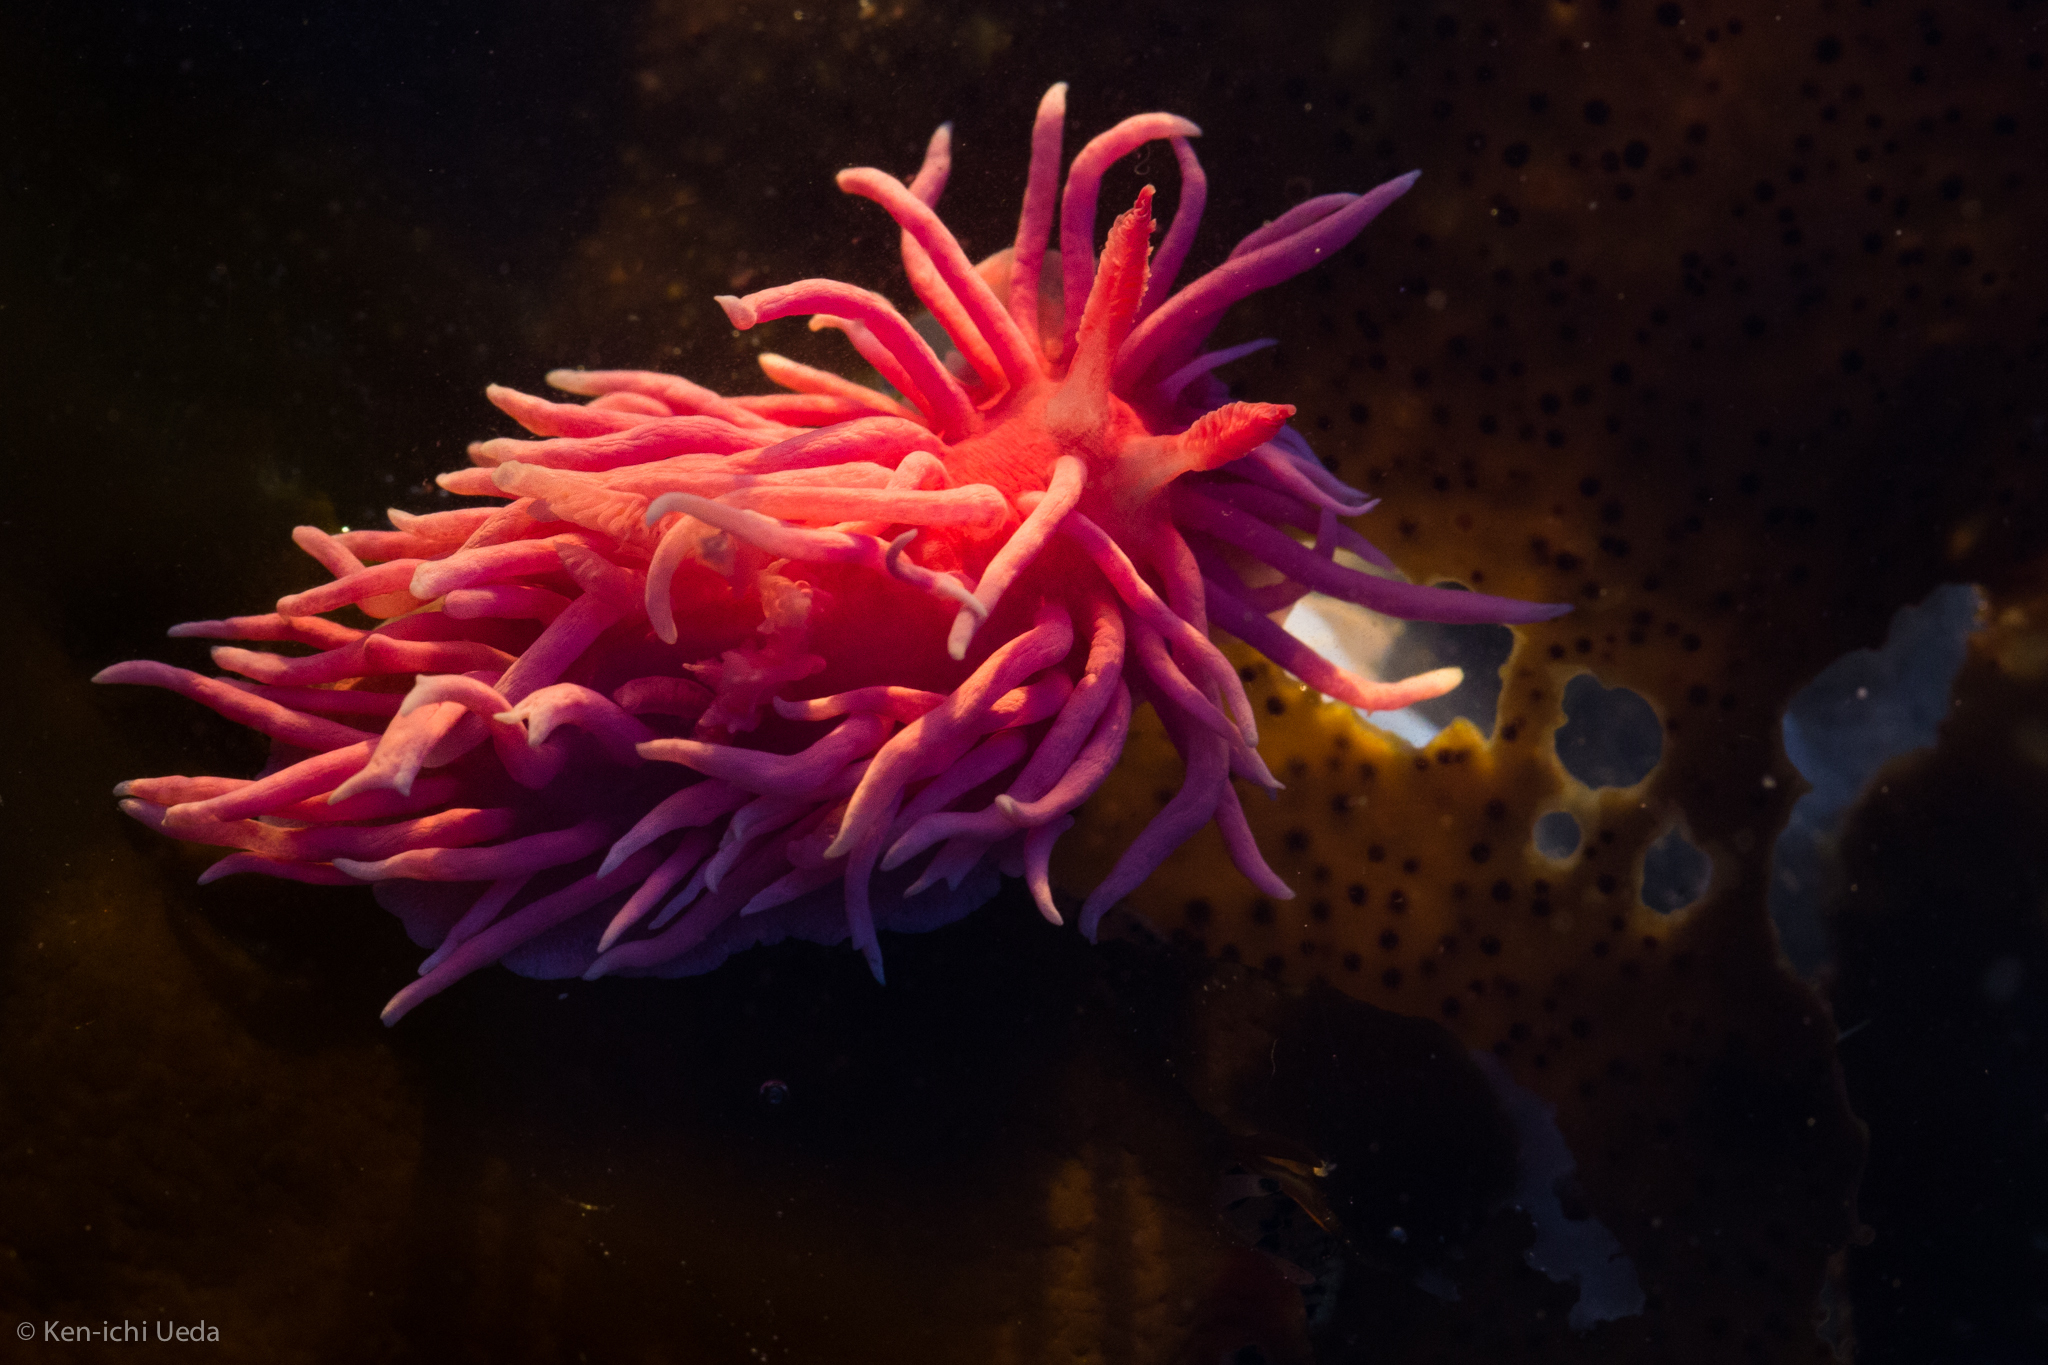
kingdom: Animalia
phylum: Mollusca
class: Gastropoda
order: Nudibranchia
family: Goniodorididae
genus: Okenia
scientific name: Okenia
